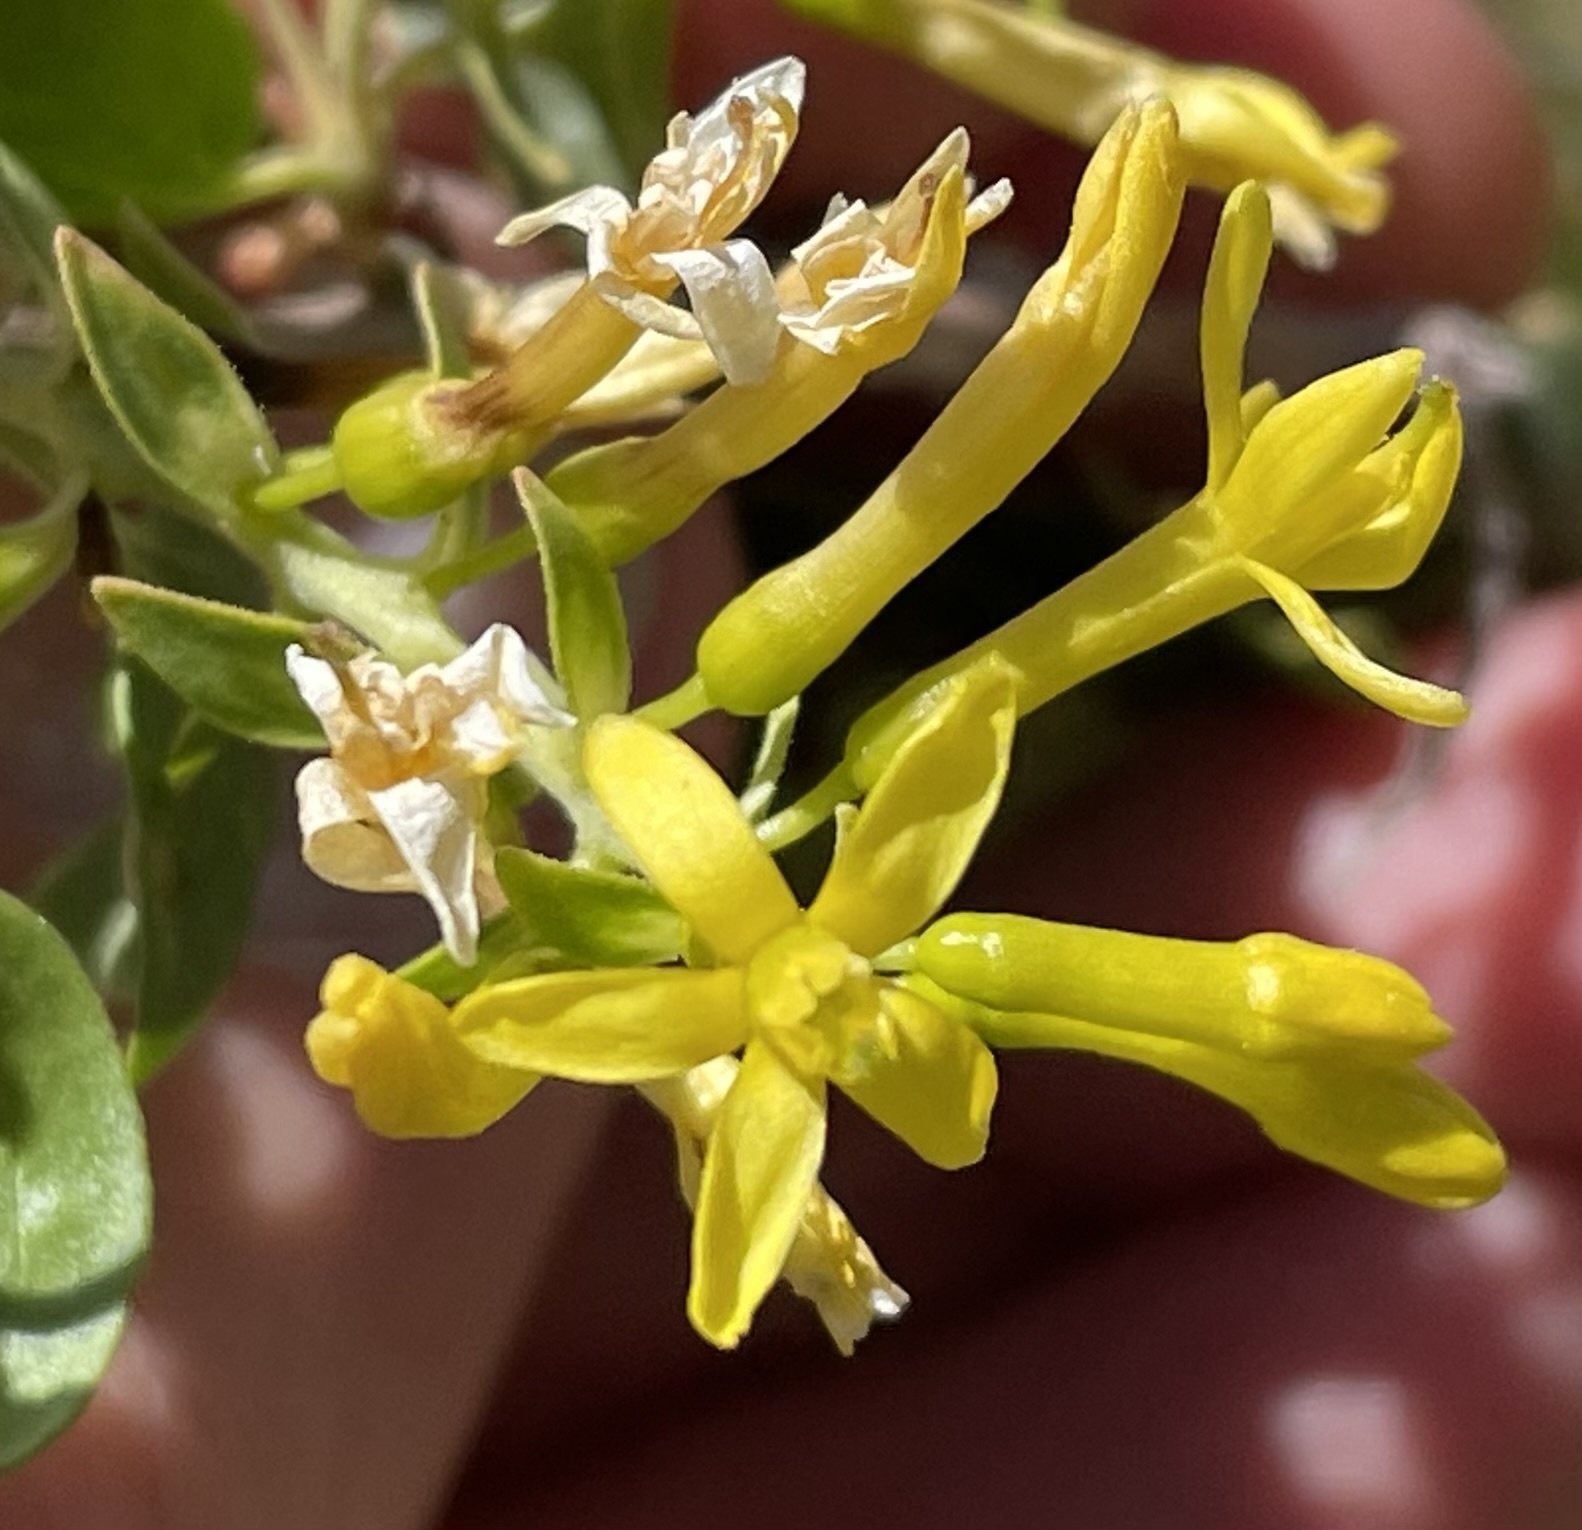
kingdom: Plantae
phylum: Tracheophyta
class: Magnoliopsida
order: Saxifragales
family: Grossulariaceae
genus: Ribes
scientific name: Ribes aureum
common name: Golden currant
